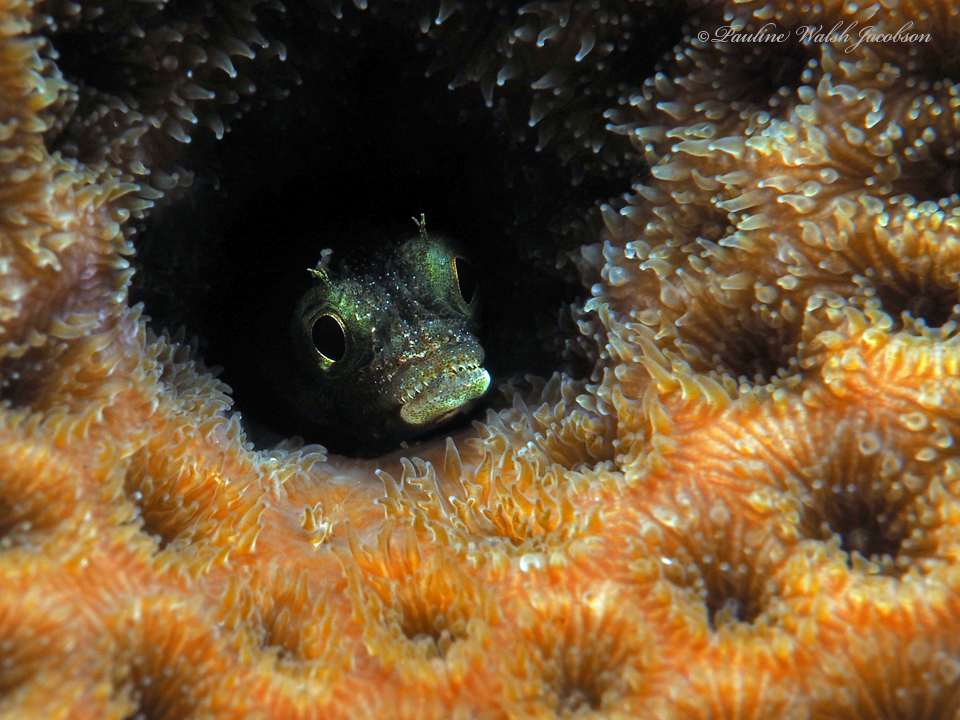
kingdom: Animalia
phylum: Chordata
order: Perciformes
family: Chaenopsidae
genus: Acanthemblemaria
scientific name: Acanthemblemaria spinosa
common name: Spinyhead blenny
